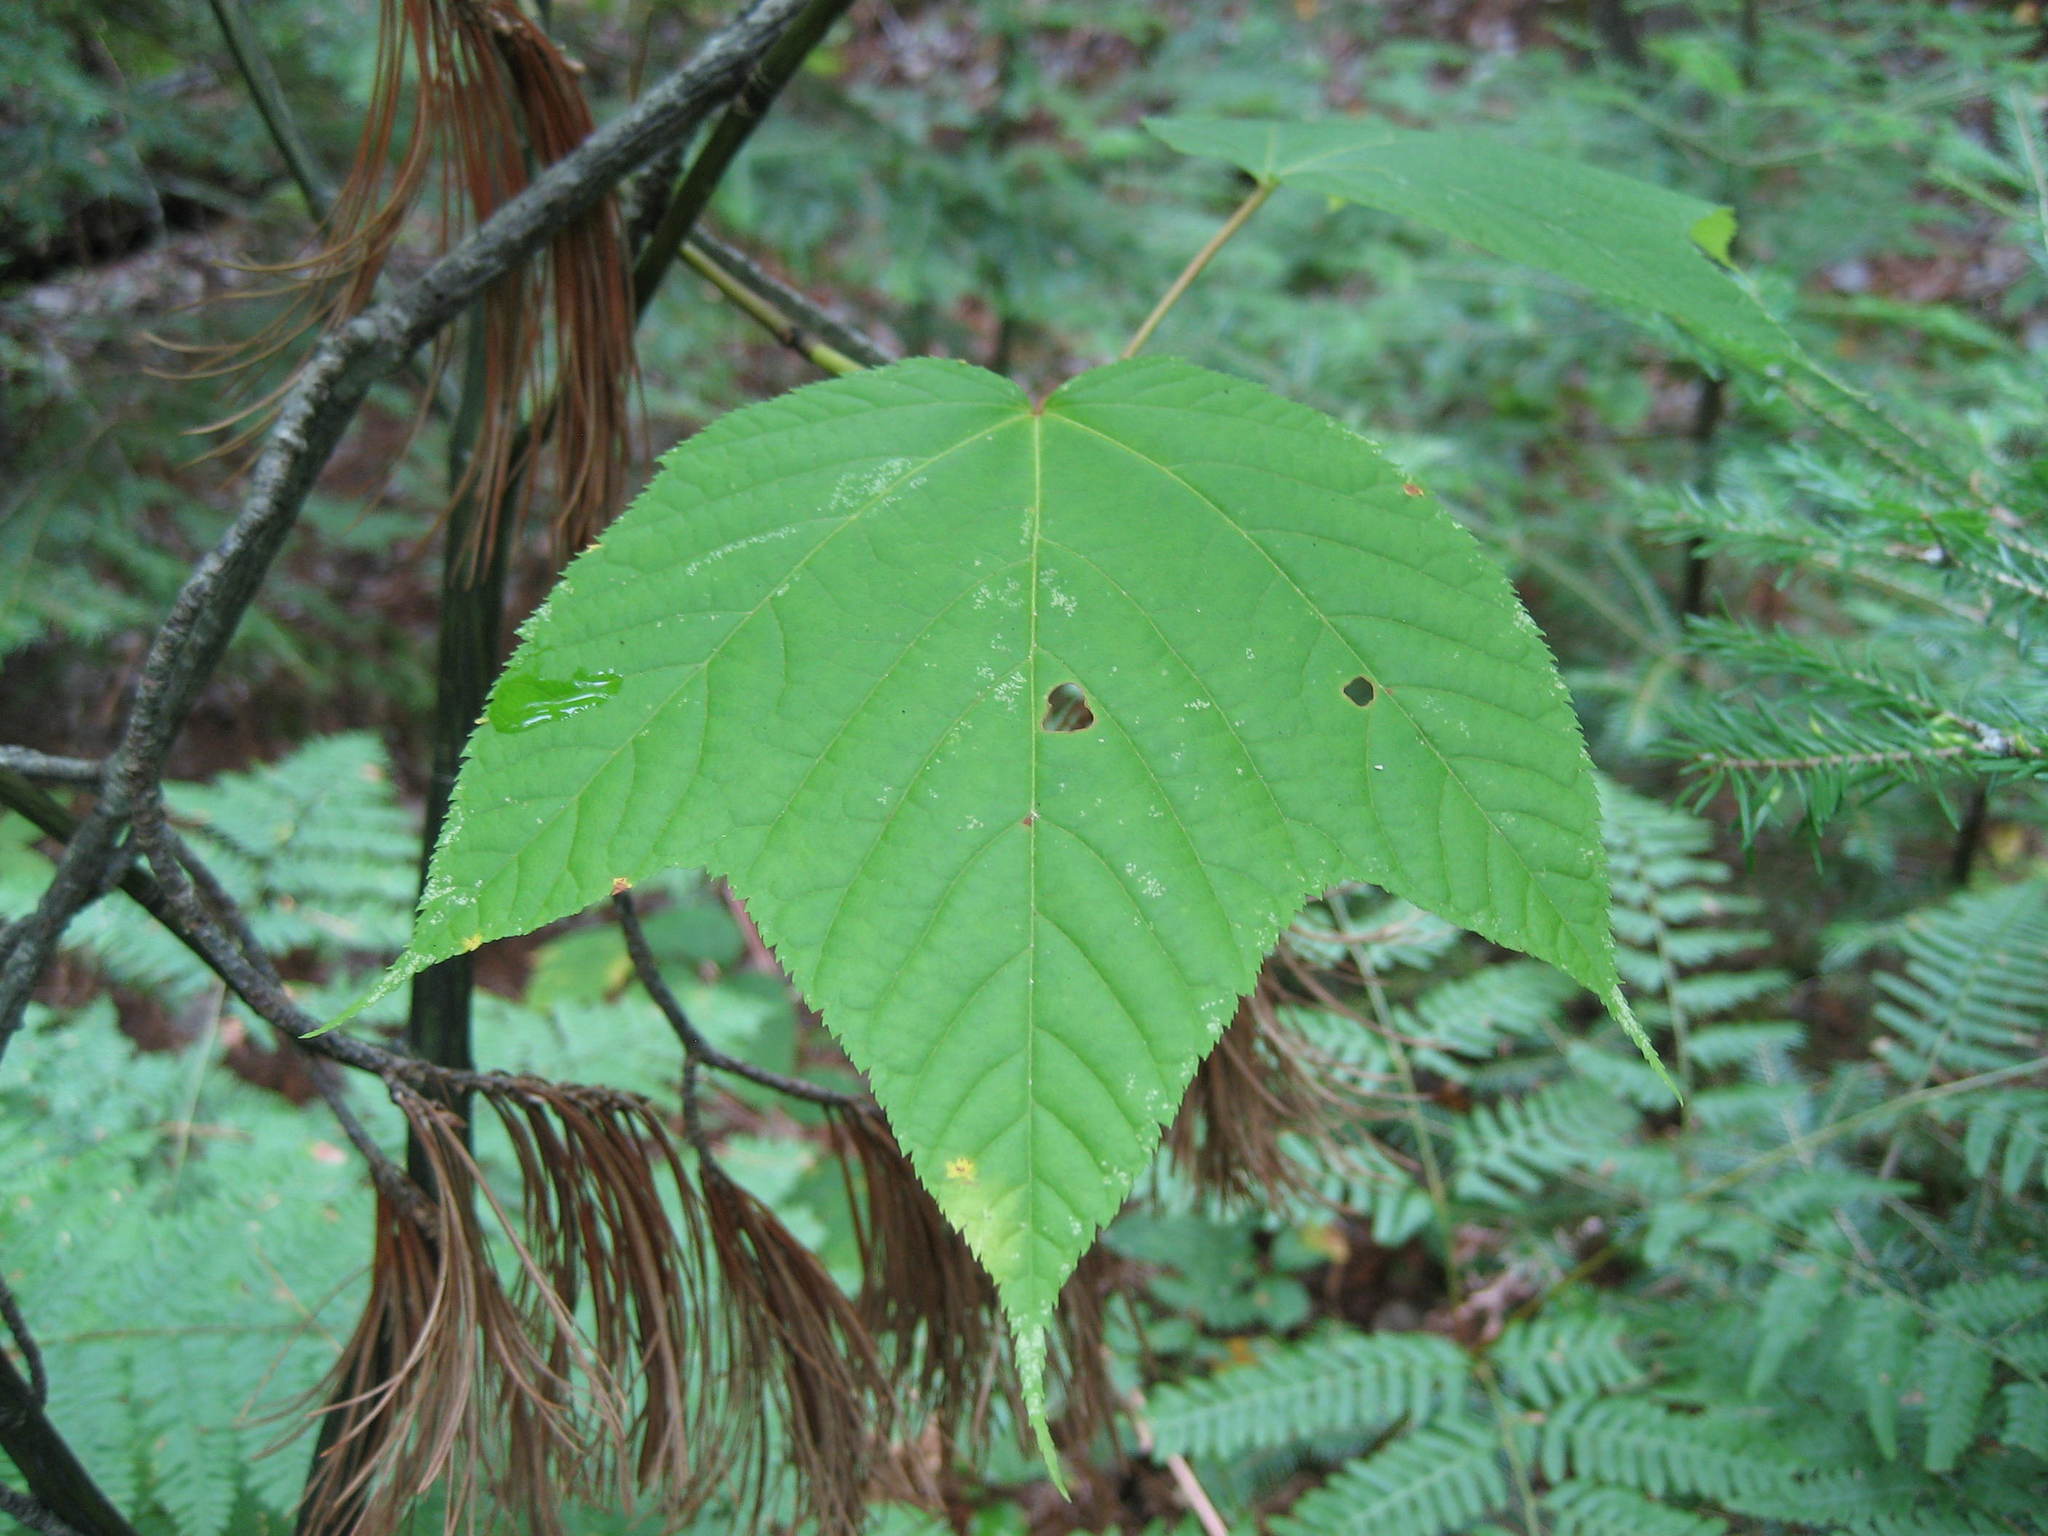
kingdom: Plantae
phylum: Tracheophyta
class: Magnoliopsida
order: Sapindales
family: Sapindaceae
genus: Acer
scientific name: Acer pensylvanicum
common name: Moosewood
